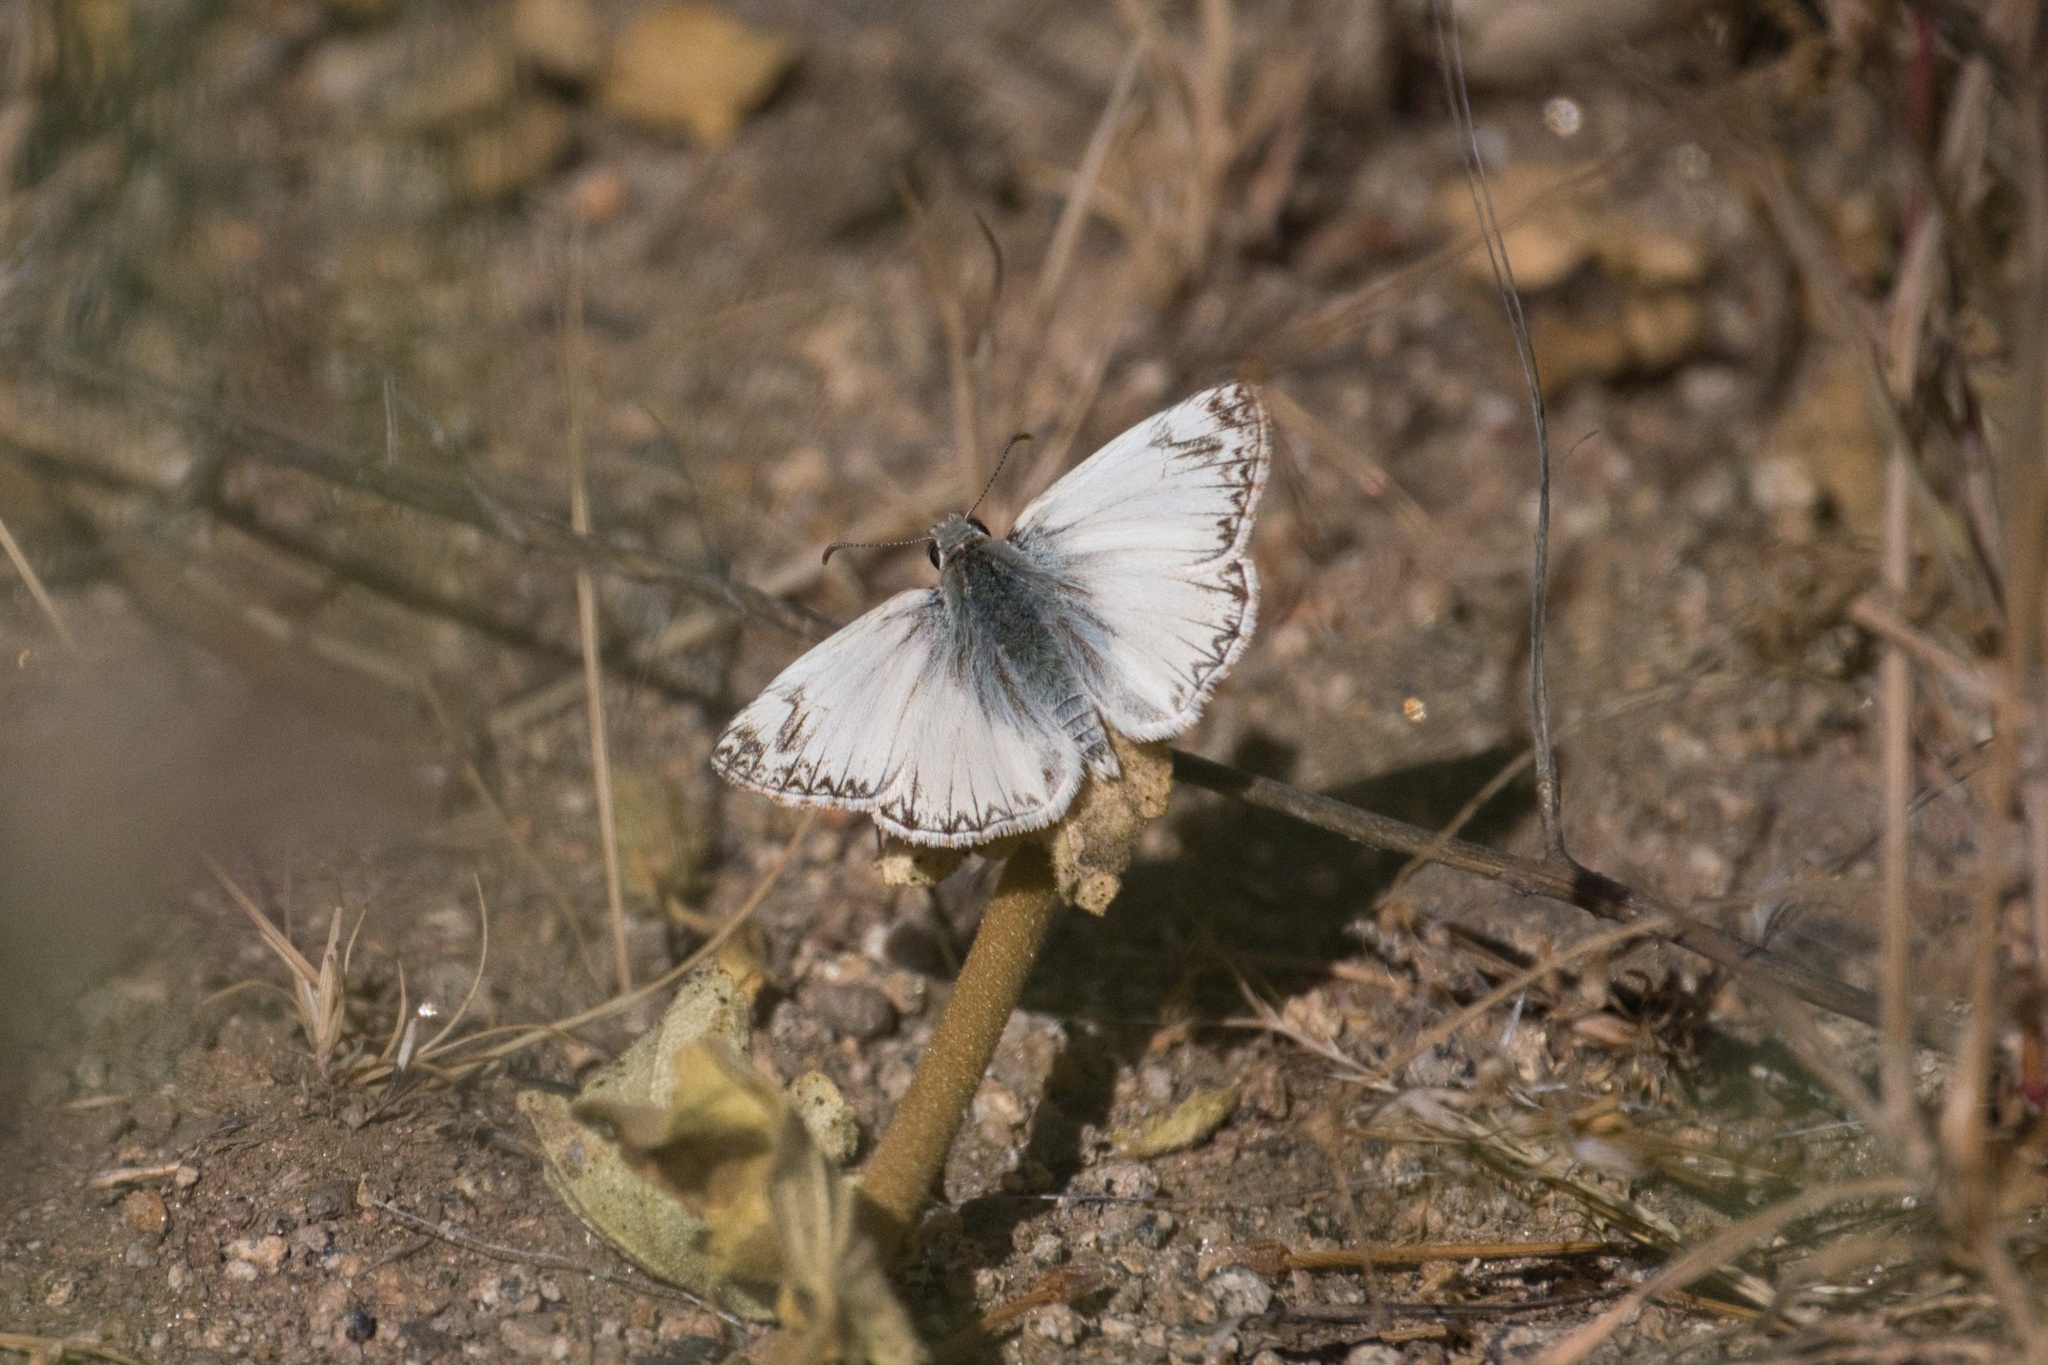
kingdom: Animalia
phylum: Arthropoda
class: Insecta
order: Lepidoptera
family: Hesperiidae
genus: Heliopetes
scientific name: Heliopetes ericetorum
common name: Northern white-skipper
